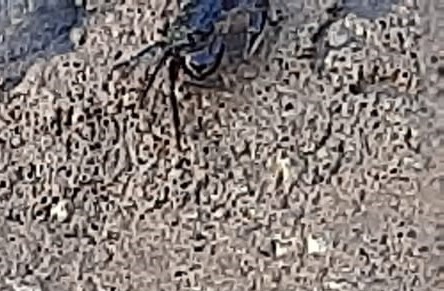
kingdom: Animalia
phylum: Arthropoda
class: Malacostraca
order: Decapoda
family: Grapsidae
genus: Pachygrapsus
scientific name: Pachygrapsus socius
